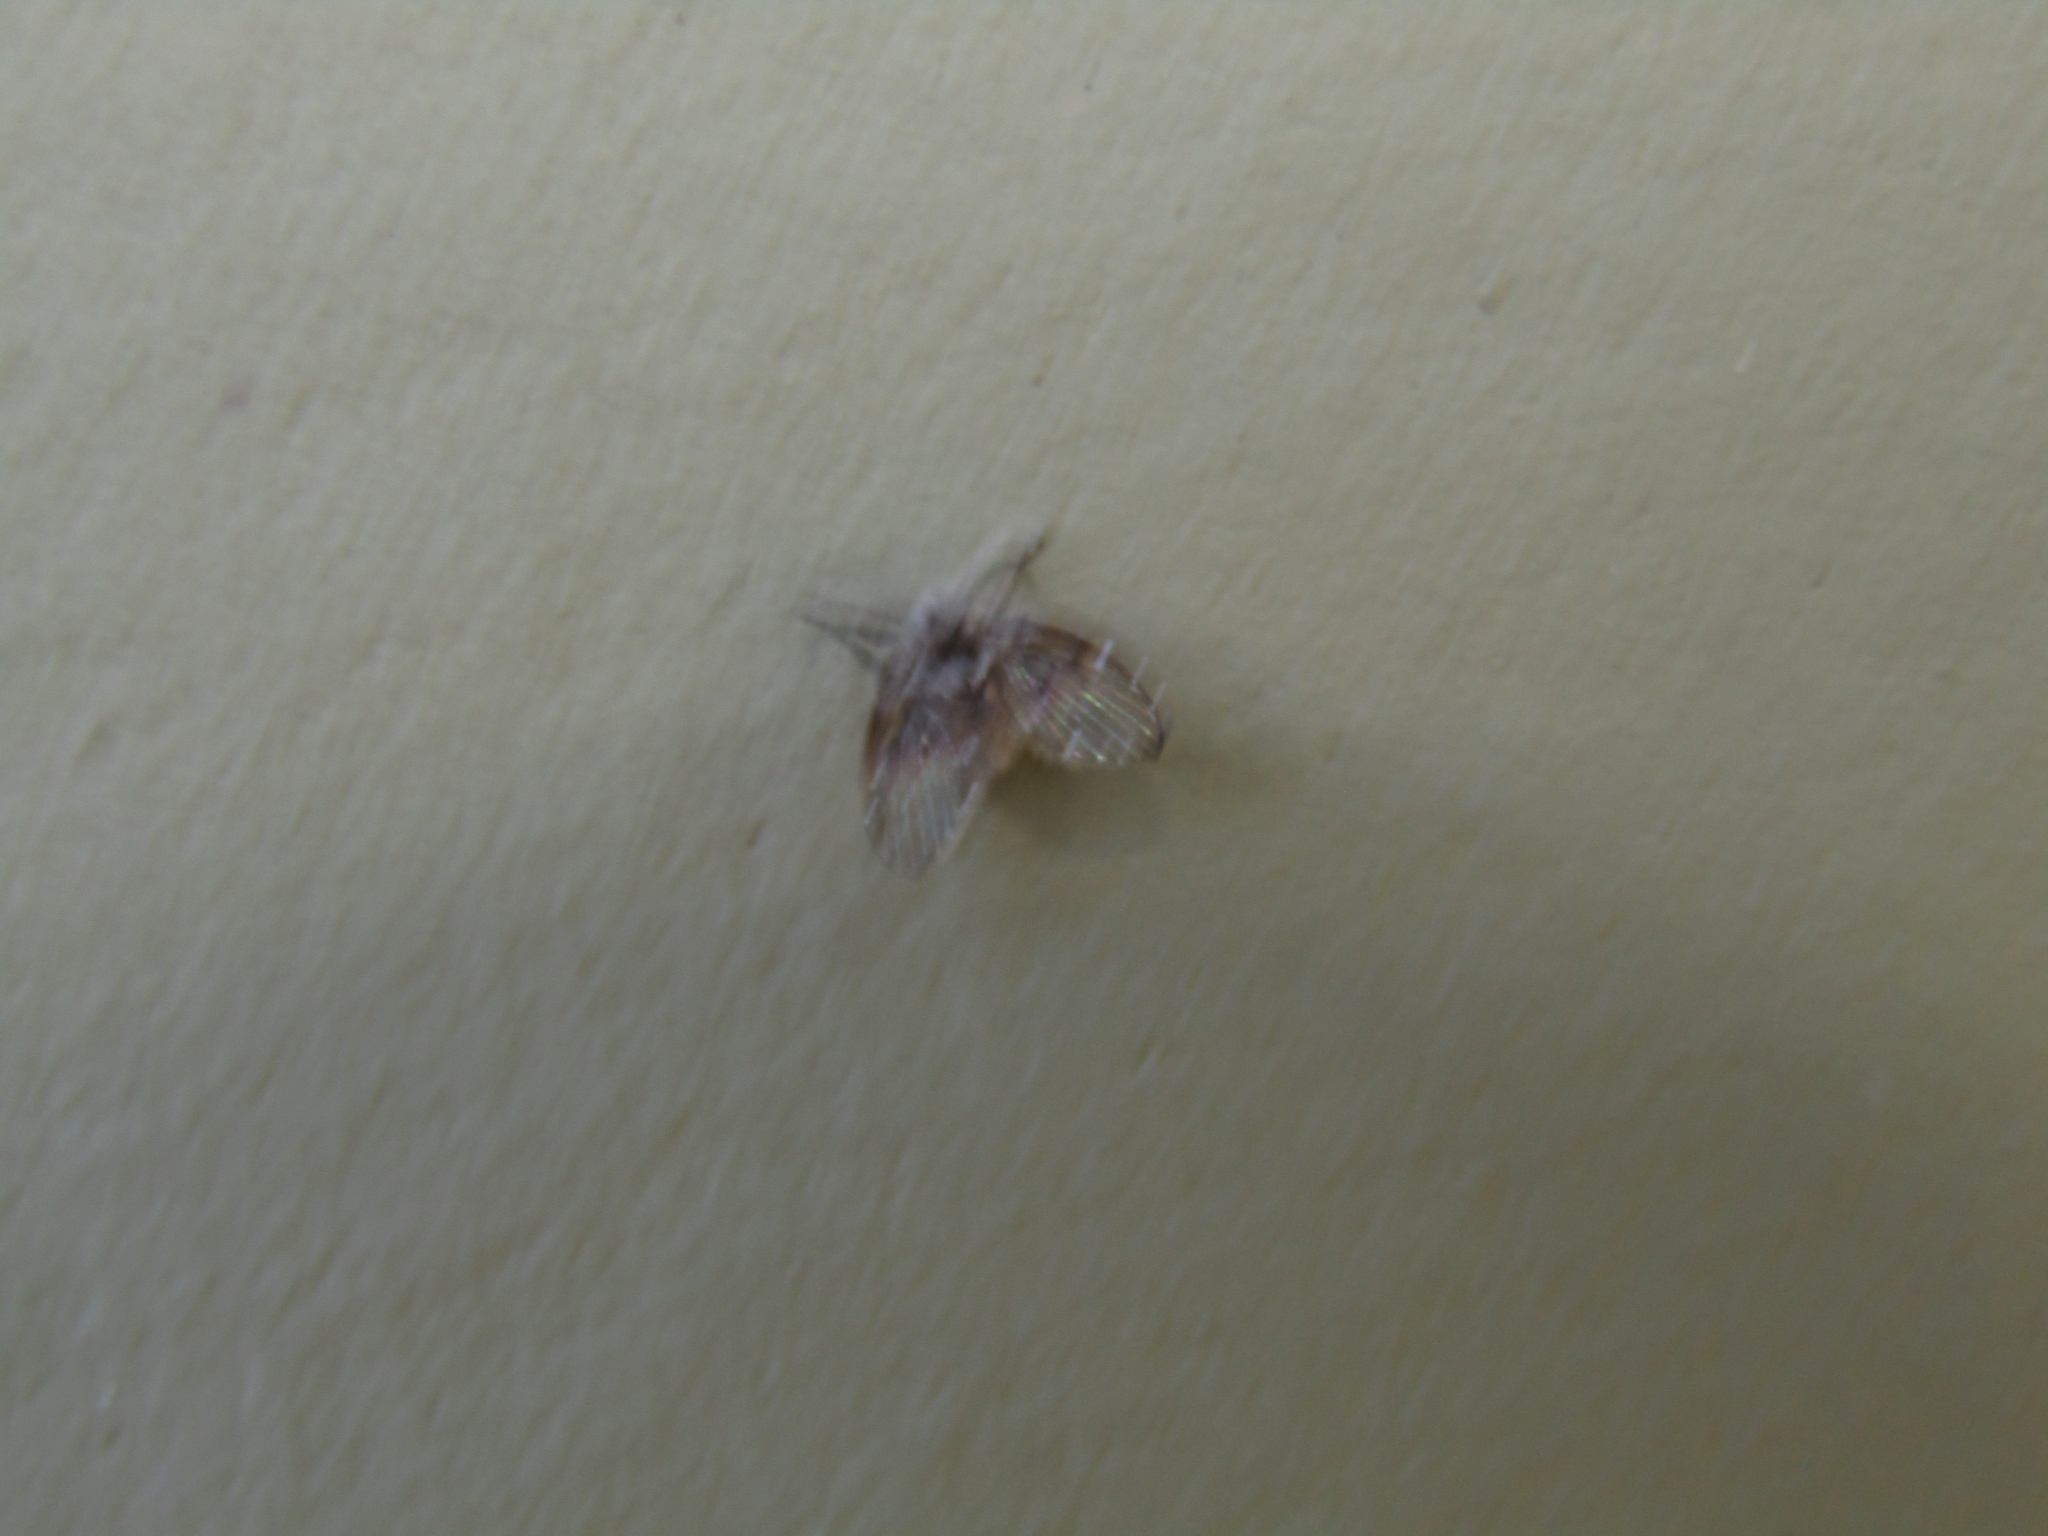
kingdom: Animalia
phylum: Arthropoda
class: Insecta
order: Diptera
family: Psychodidae
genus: Clogmia
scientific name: Clogmia albipunctatus
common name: White-spotted moth fly
